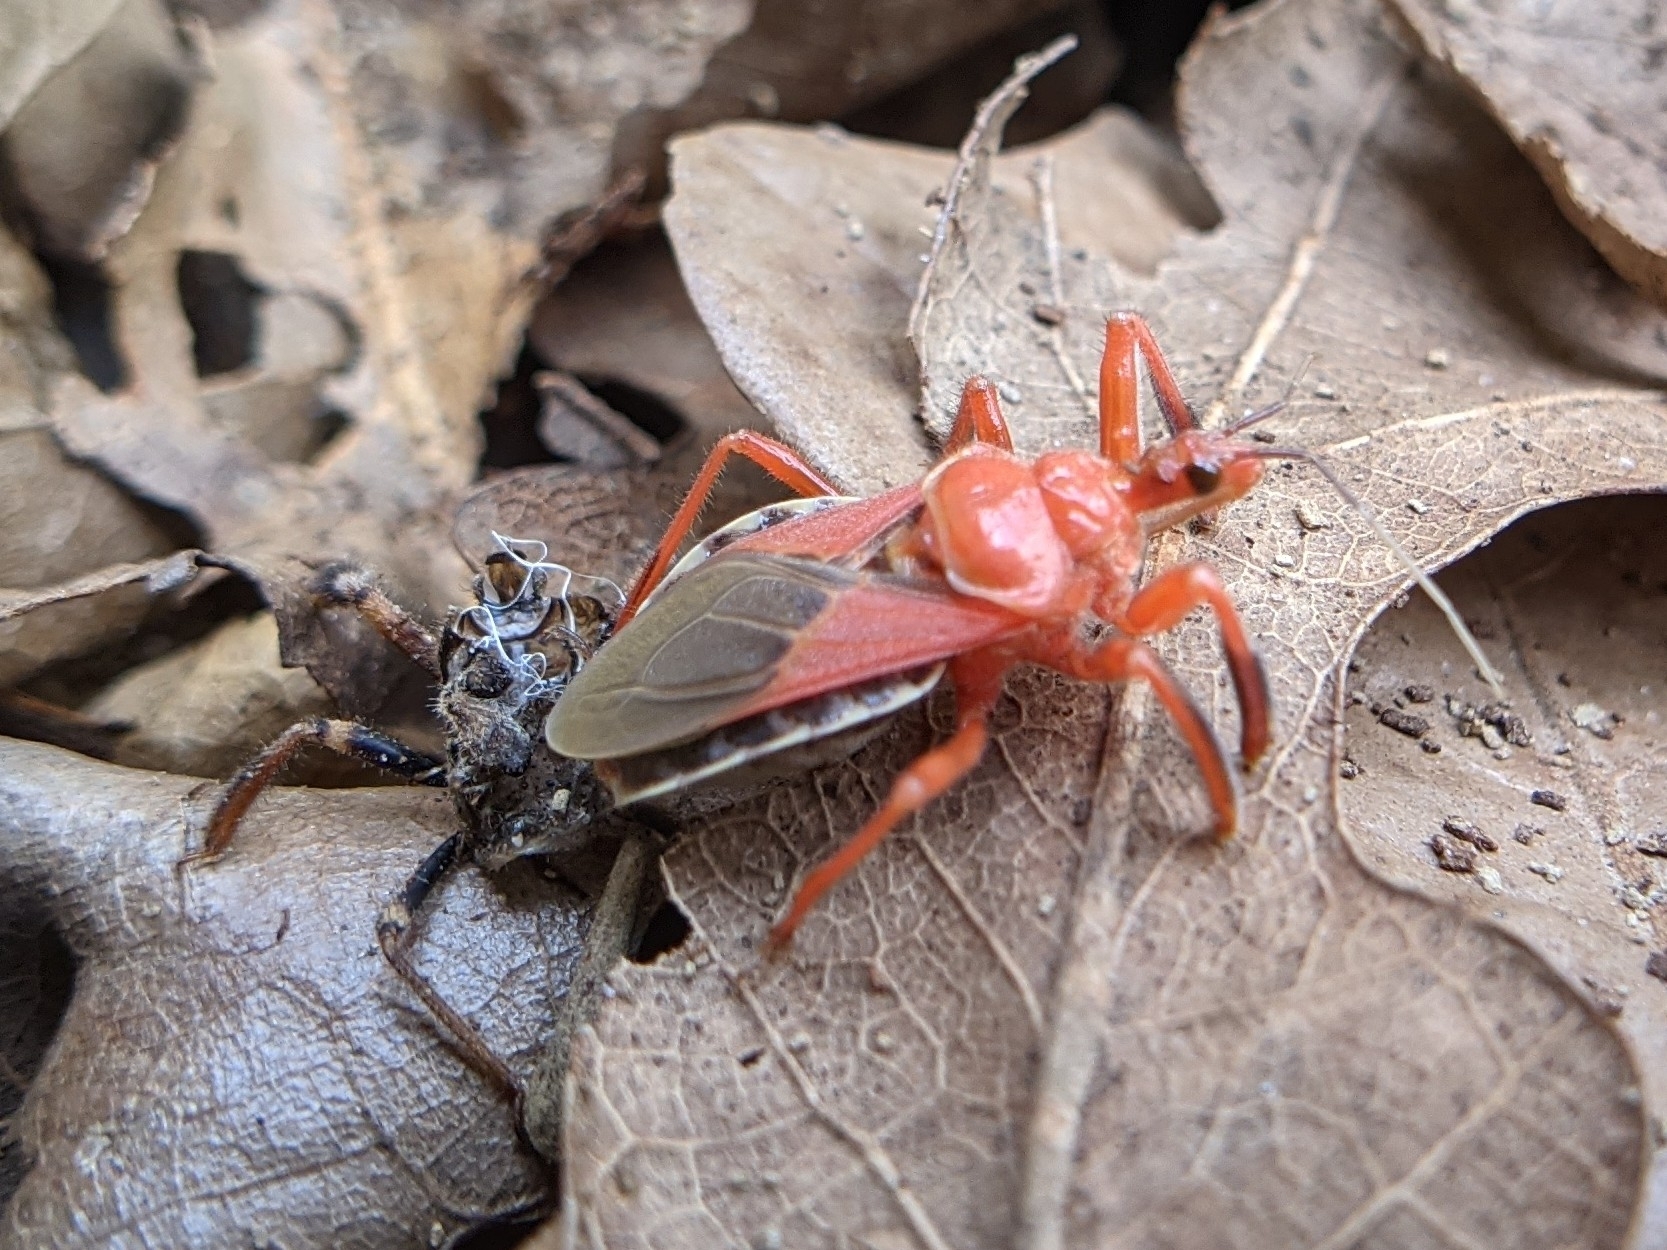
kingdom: Animalia
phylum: Arthropoda
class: Insecta
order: Hemiptera
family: Reduviidae
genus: Apiomerus
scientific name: Apiomerus spissipes
